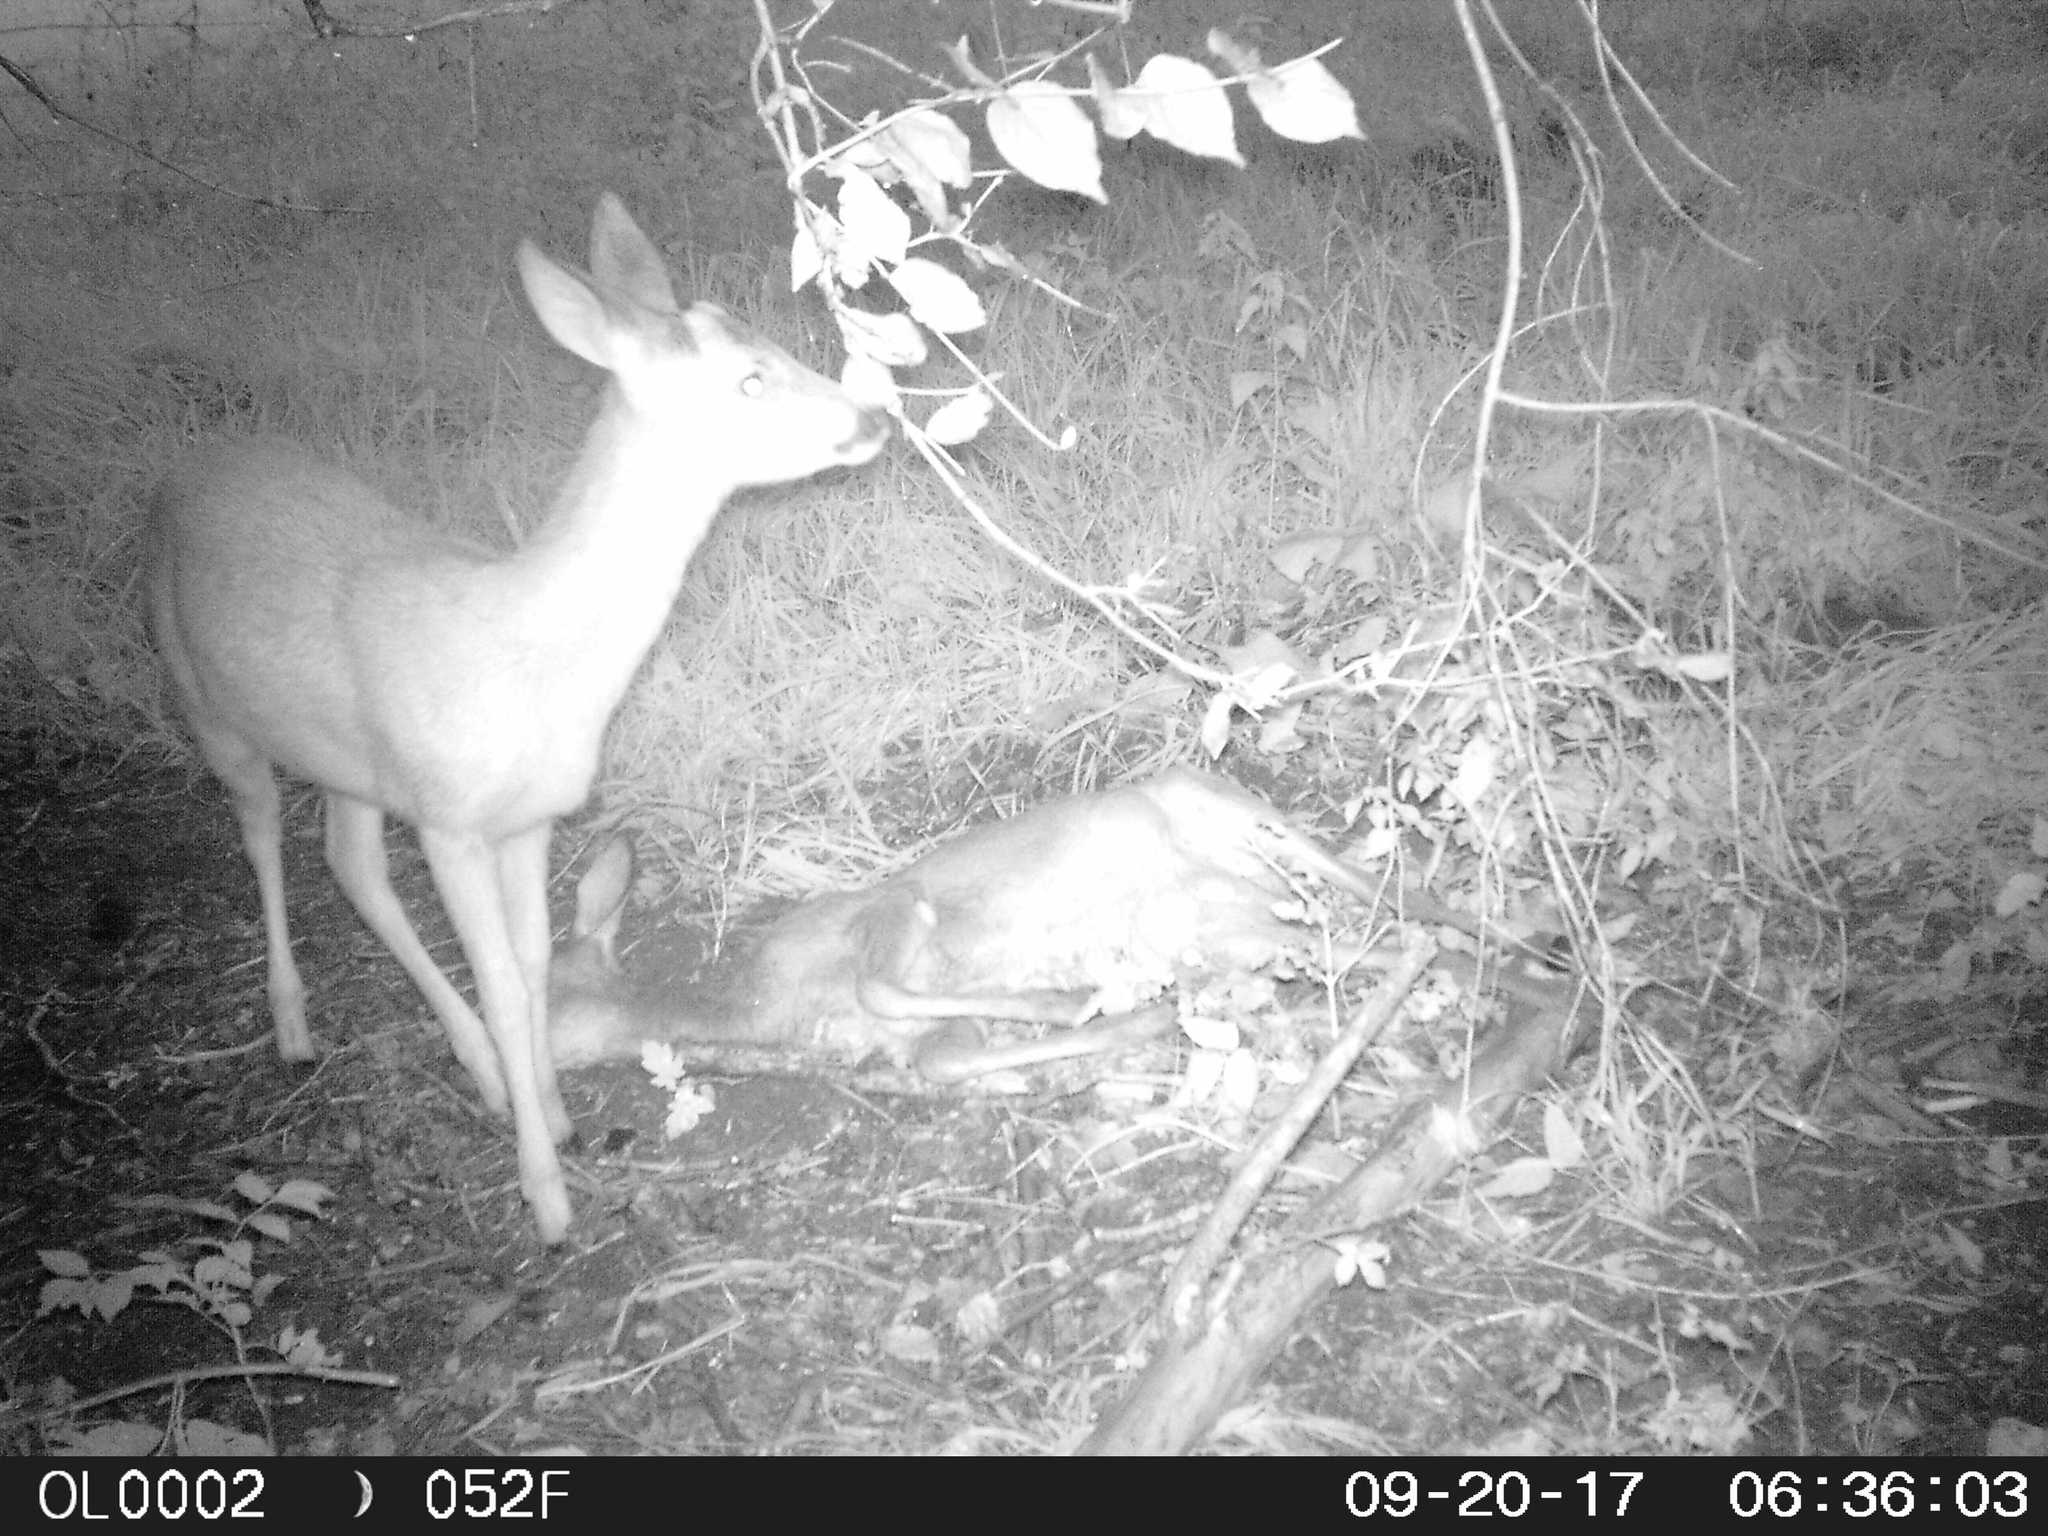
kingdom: Animalia
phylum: Chordata
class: Mammalia
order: Artiodactyla
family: Cervidae
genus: Capreolus
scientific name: Capreolus capreolus
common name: Western roe deer
